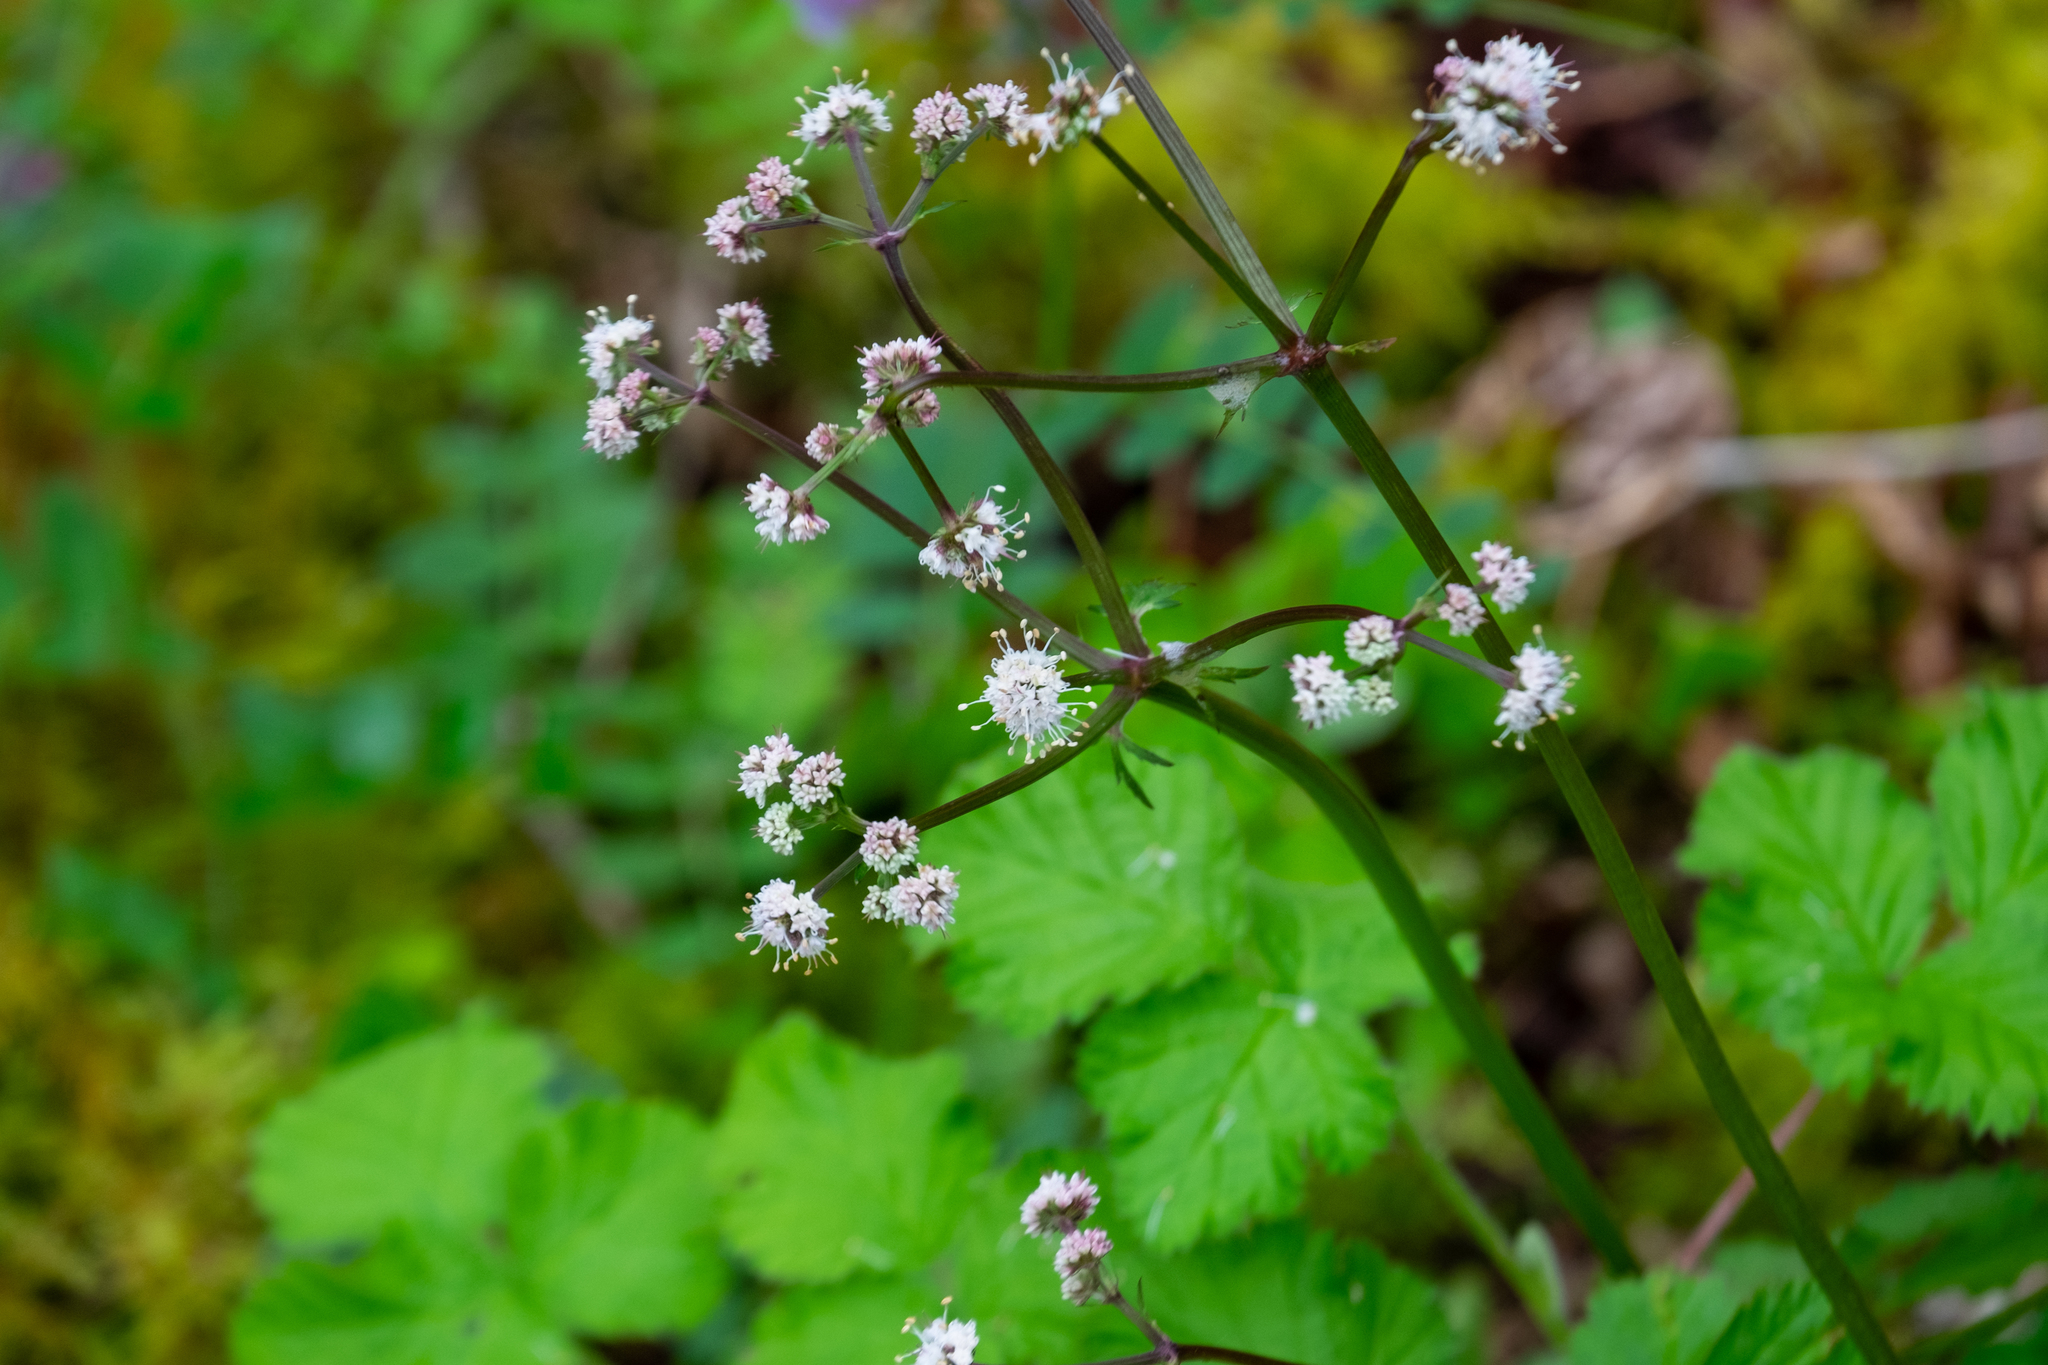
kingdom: Plantae
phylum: Tracheophyta
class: Magnoliopsida
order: Apiales
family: Apiaceae
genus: Sanicula
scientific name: Sanicula europaea
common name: Sanicle
